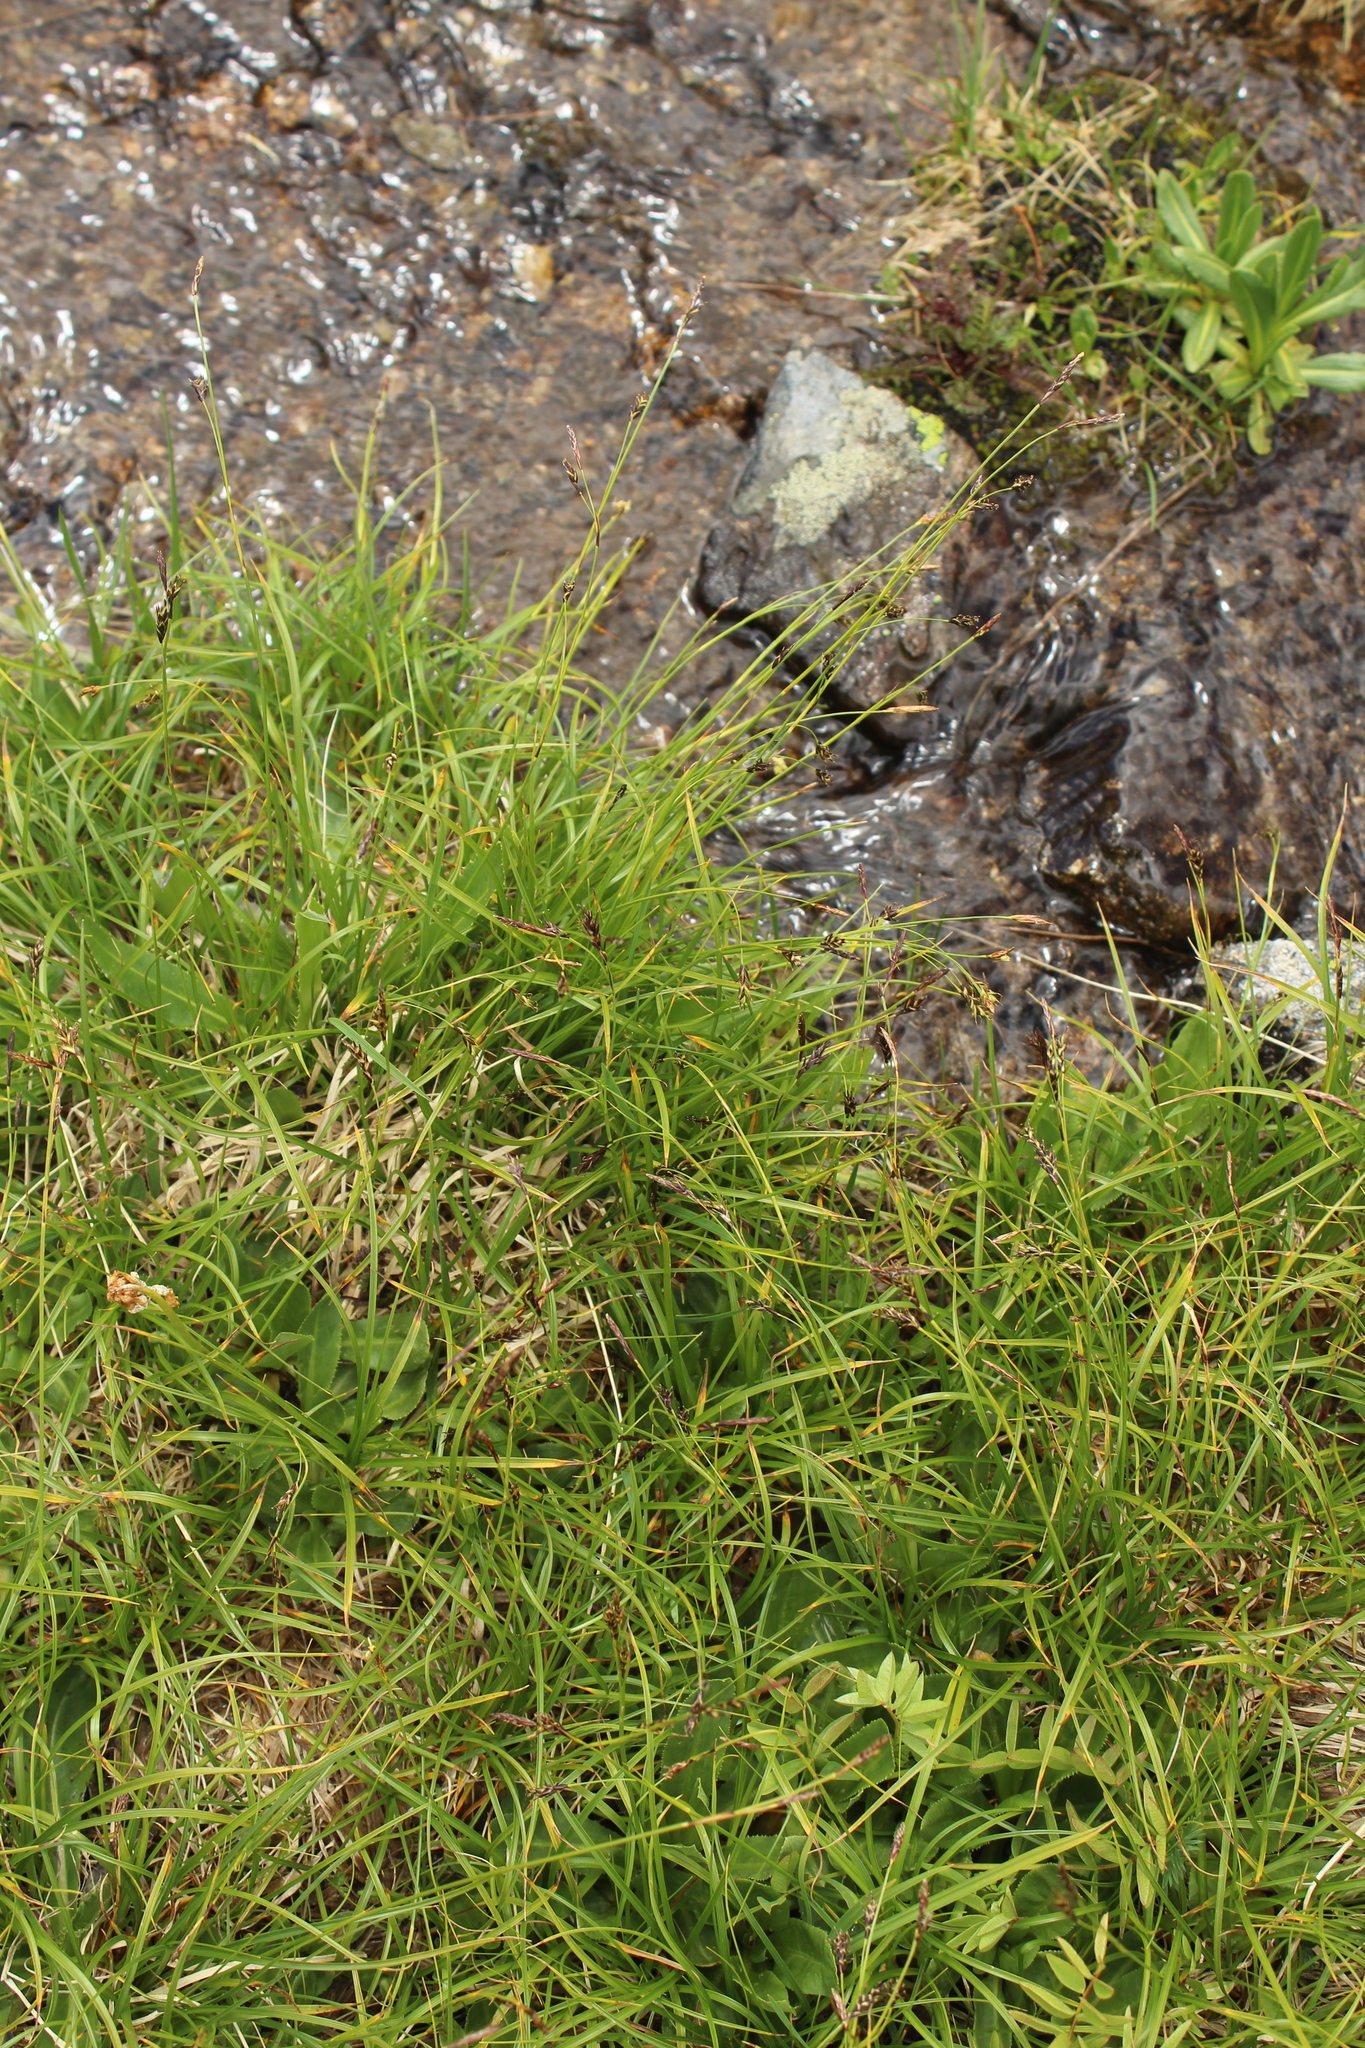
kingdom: Plantae
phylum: Tracheophyta
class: Liliopsida
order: Poales
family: Cyperaceae
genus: Carex
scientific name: Carex tristis
